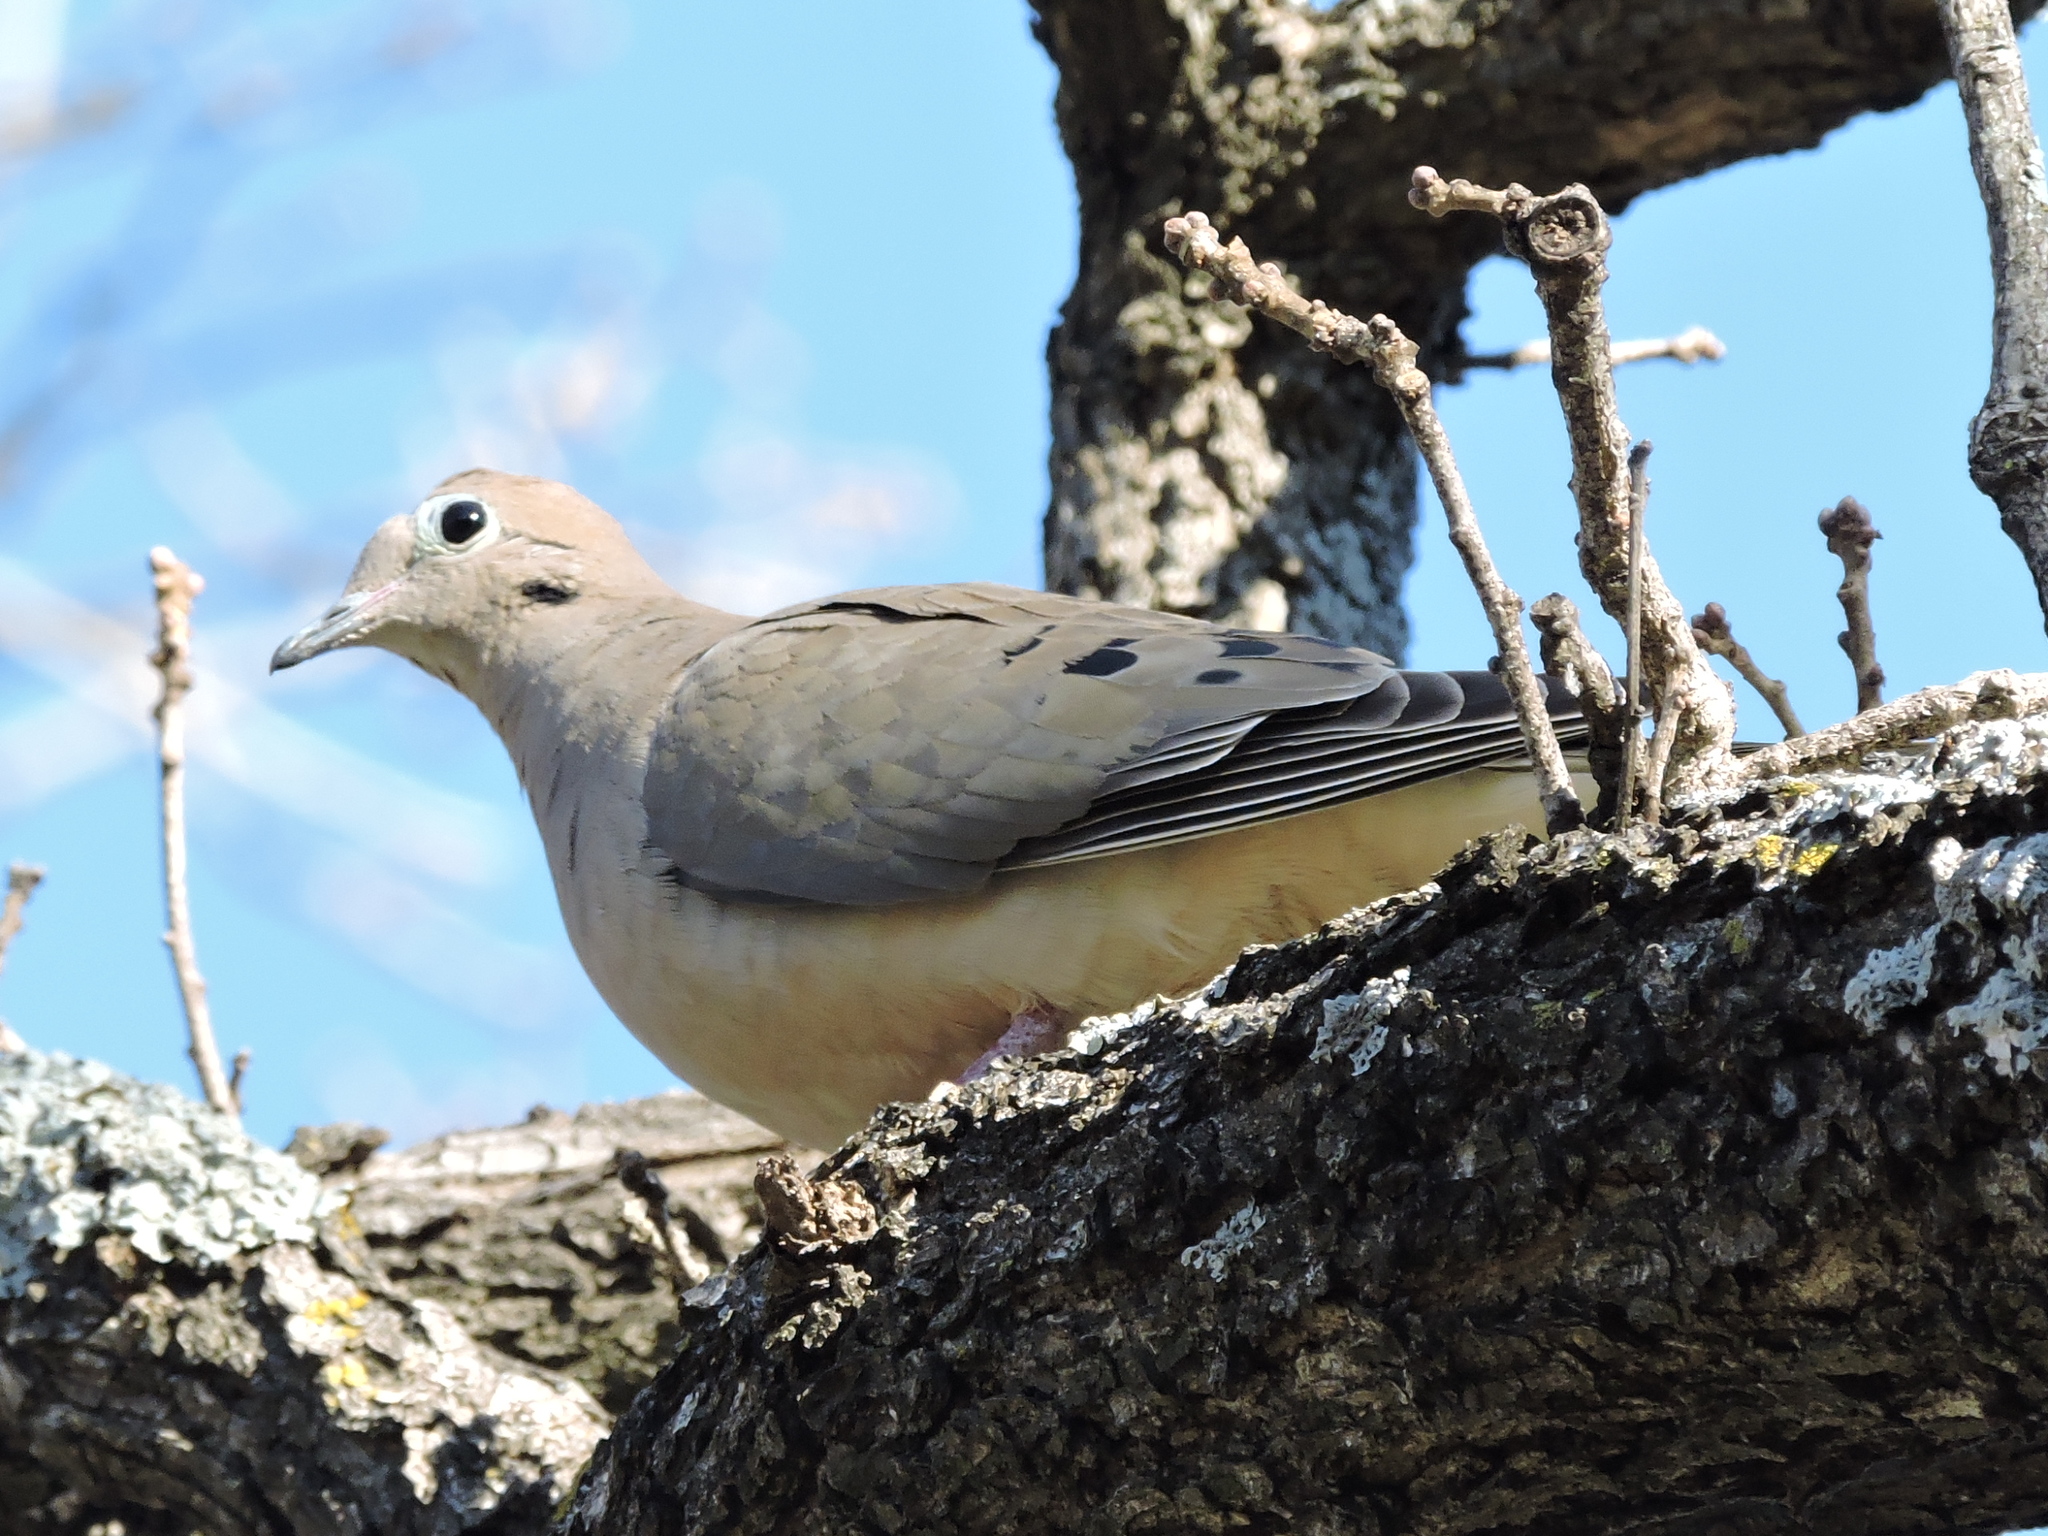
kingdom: Animalia
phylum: Chordata
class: Aves
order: Columbiformes
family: Columbidae
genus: Zenaida
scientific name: Zenaida macroura
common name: Mourning dove
